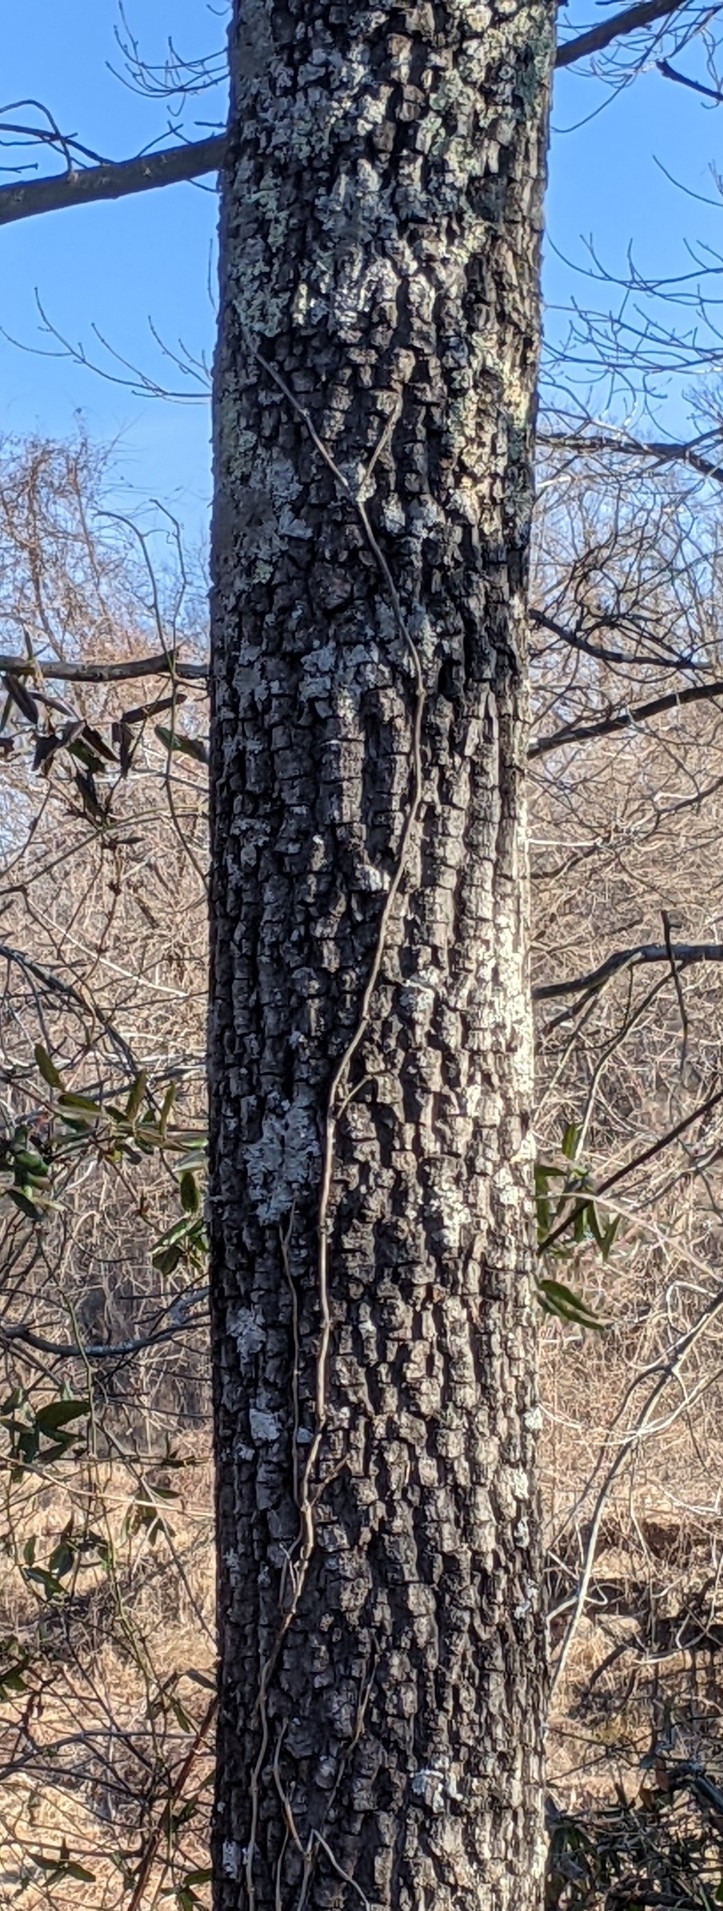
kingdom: Plantae
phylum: Tracheophyta
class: Magnoliopsida
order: Ericales
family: Ebenaceae
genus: Diospyros
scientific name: Diospyros virginiana
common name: Persimmon
